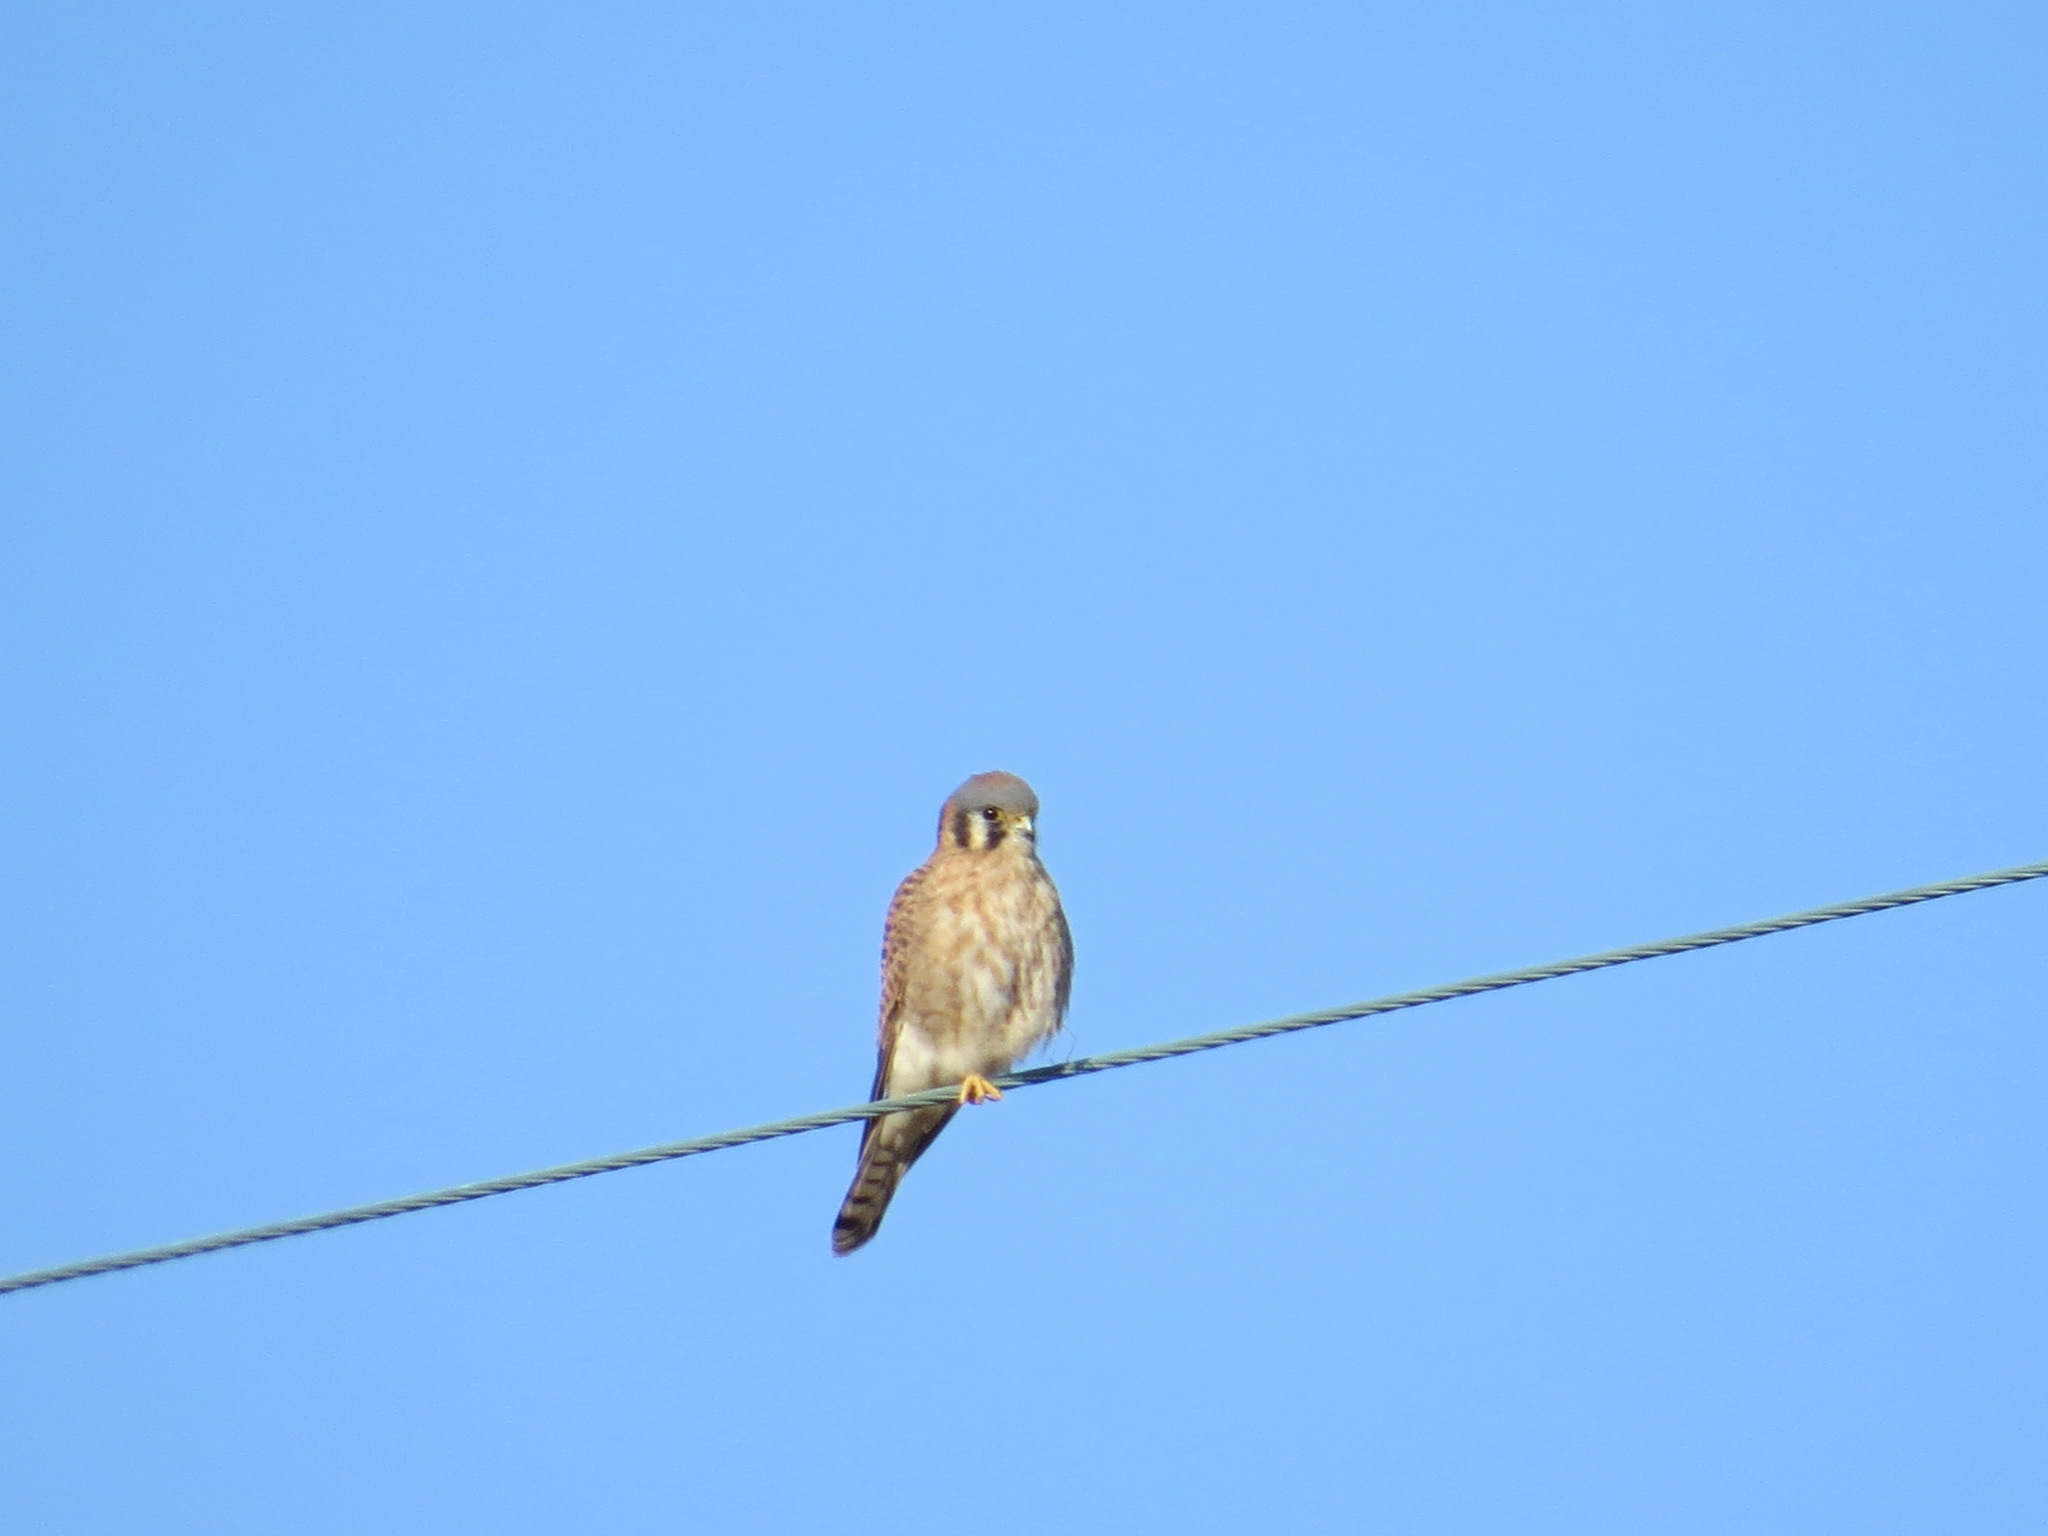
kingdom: Animalia
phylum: Chordata
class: Aves
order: Falconiformes
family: Falconidae
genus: Falco
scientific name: Falco sparverius
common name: American kestrel
